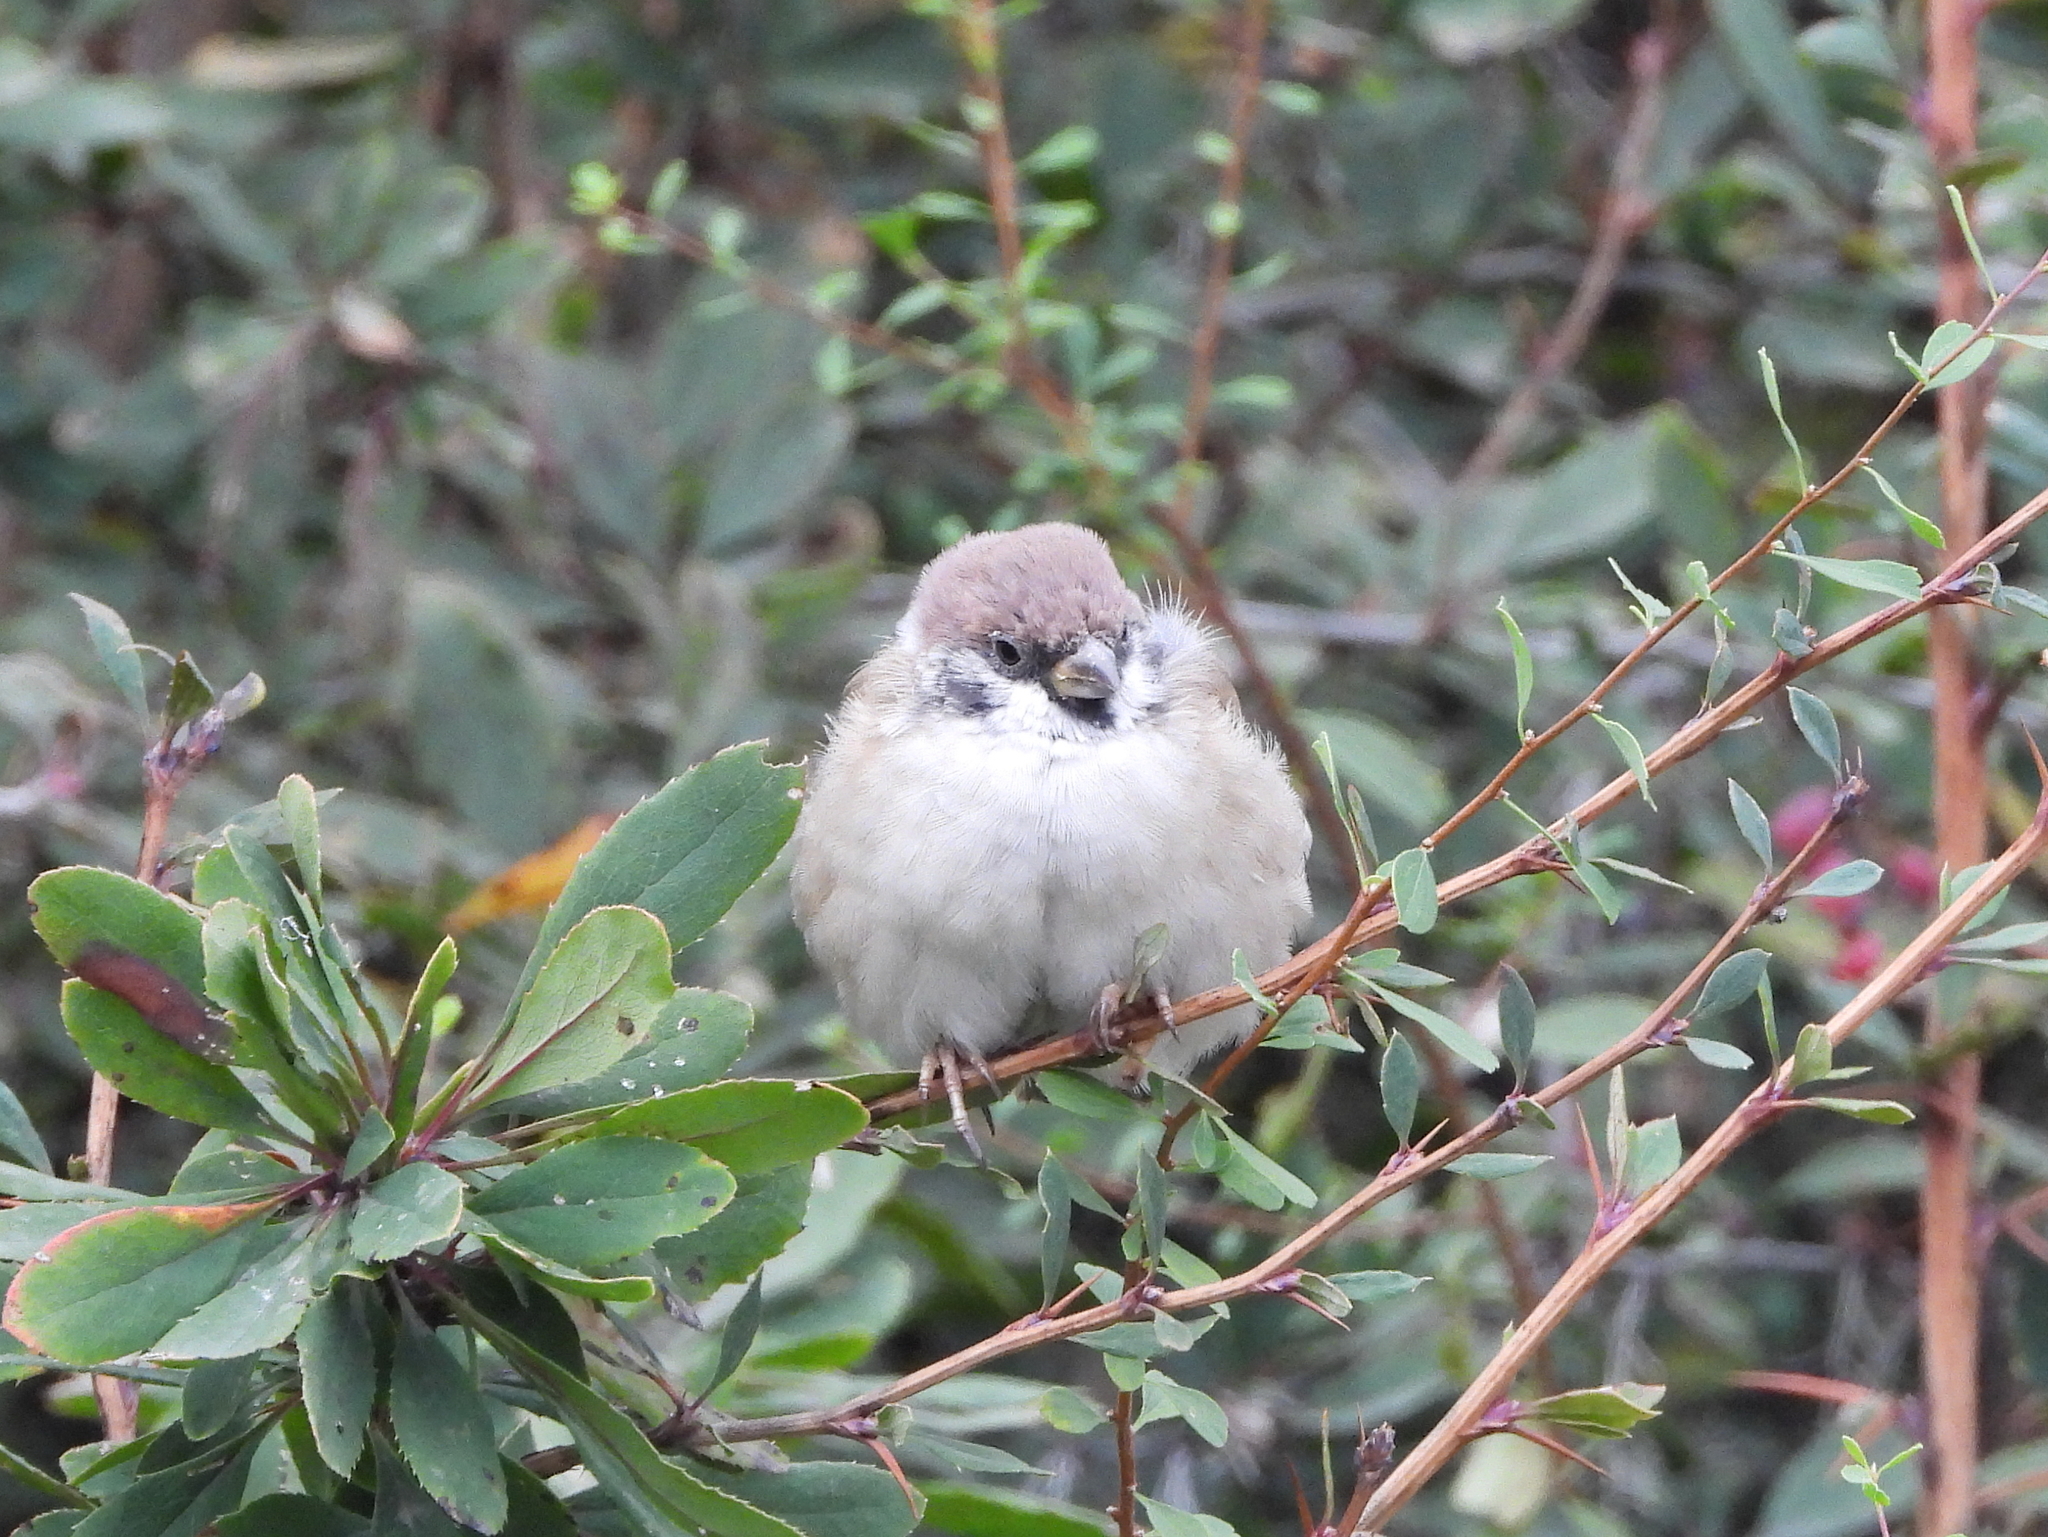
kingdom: Animalia
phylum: Chordata
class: Aves
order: Passeriformes
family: Passeridae
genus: Passer
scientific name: Passer montanus
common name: Eurasian tree sparrow
